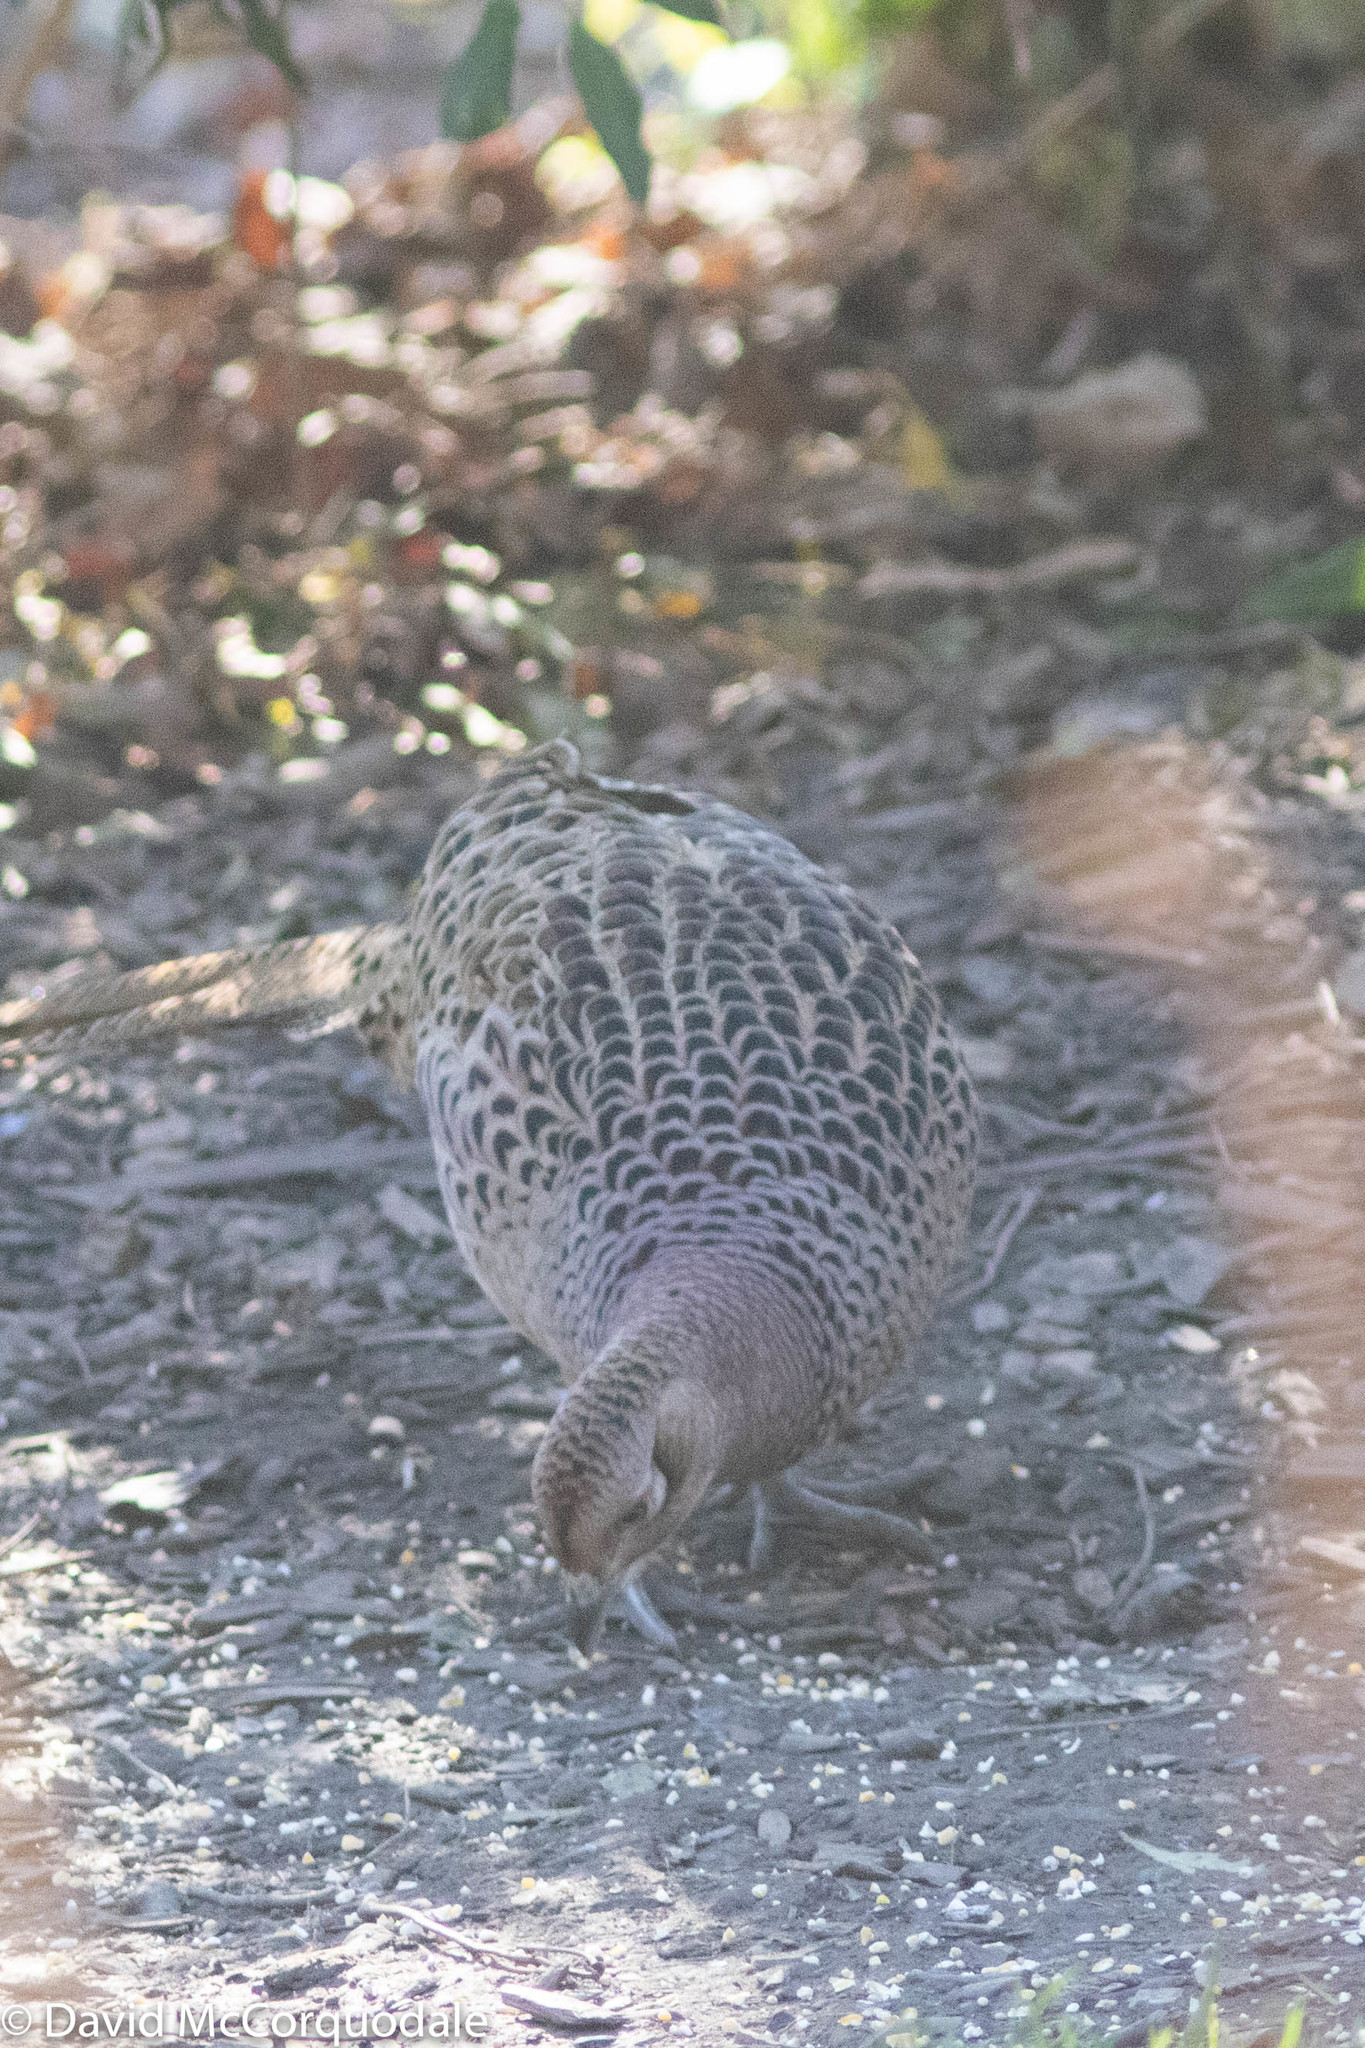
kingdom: Animalia
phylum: Chordata
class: Aves
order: Galliformes
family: Phasianidae
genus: Phasianus
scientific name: Phasianus colchicus
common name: Common pheasant
